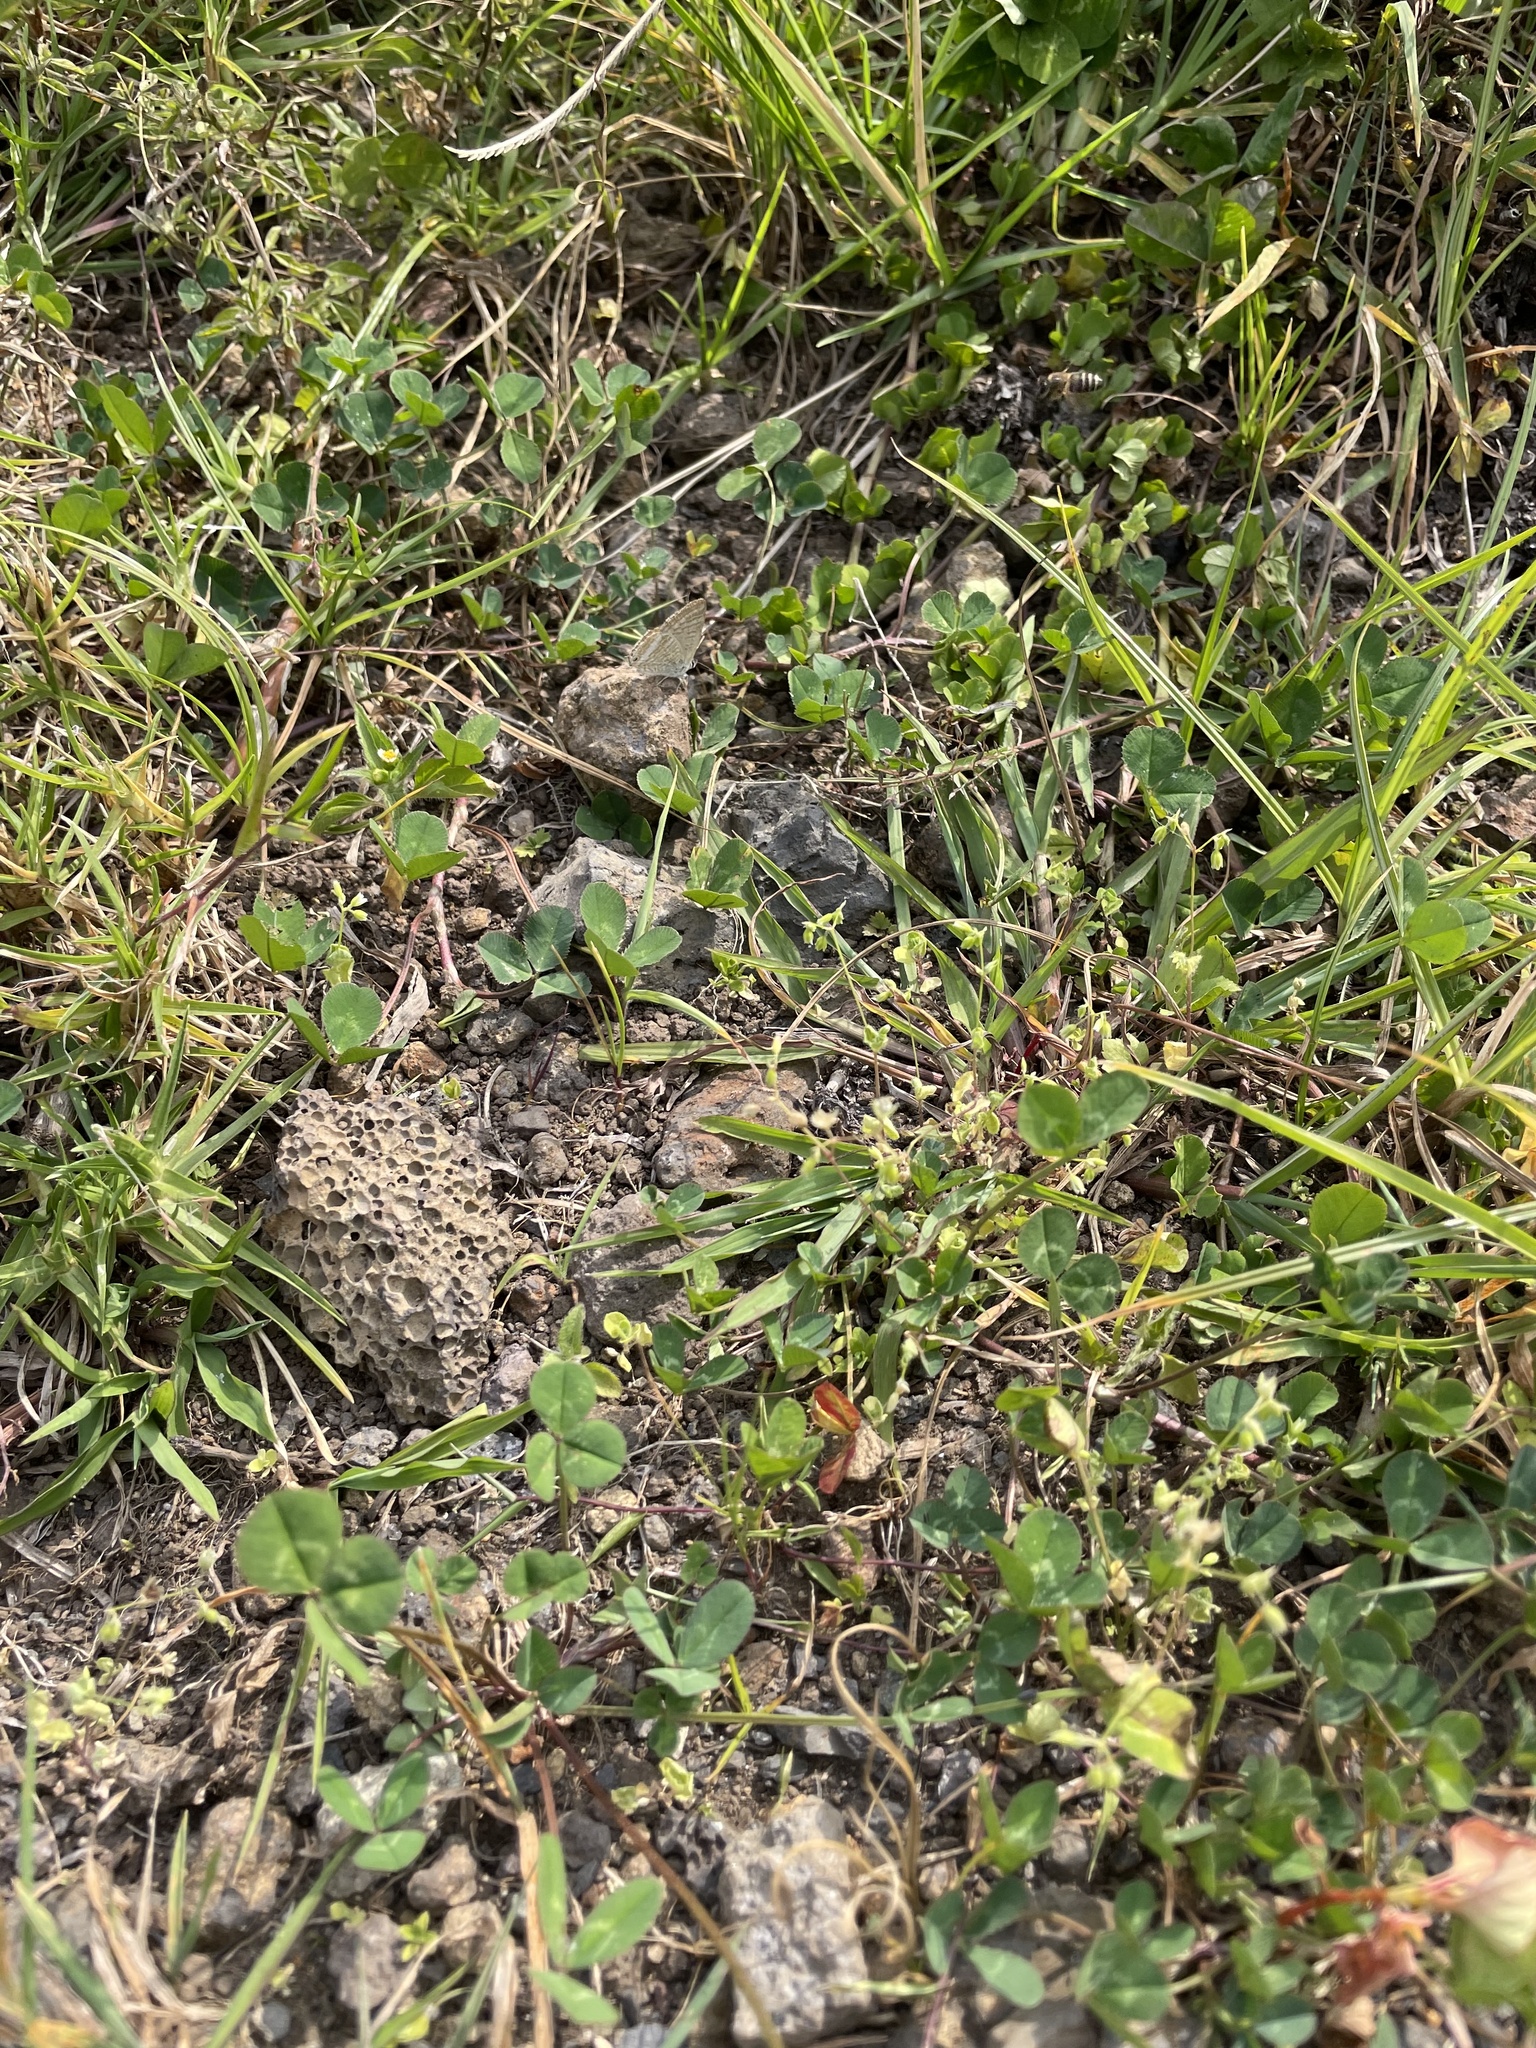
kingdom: Animalia
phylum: Arthropoda
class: Insecta
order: Lepidoptera
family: Lycaenidae
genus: Lampides
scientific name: Lampides boeticus
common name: Long-tailed blue
